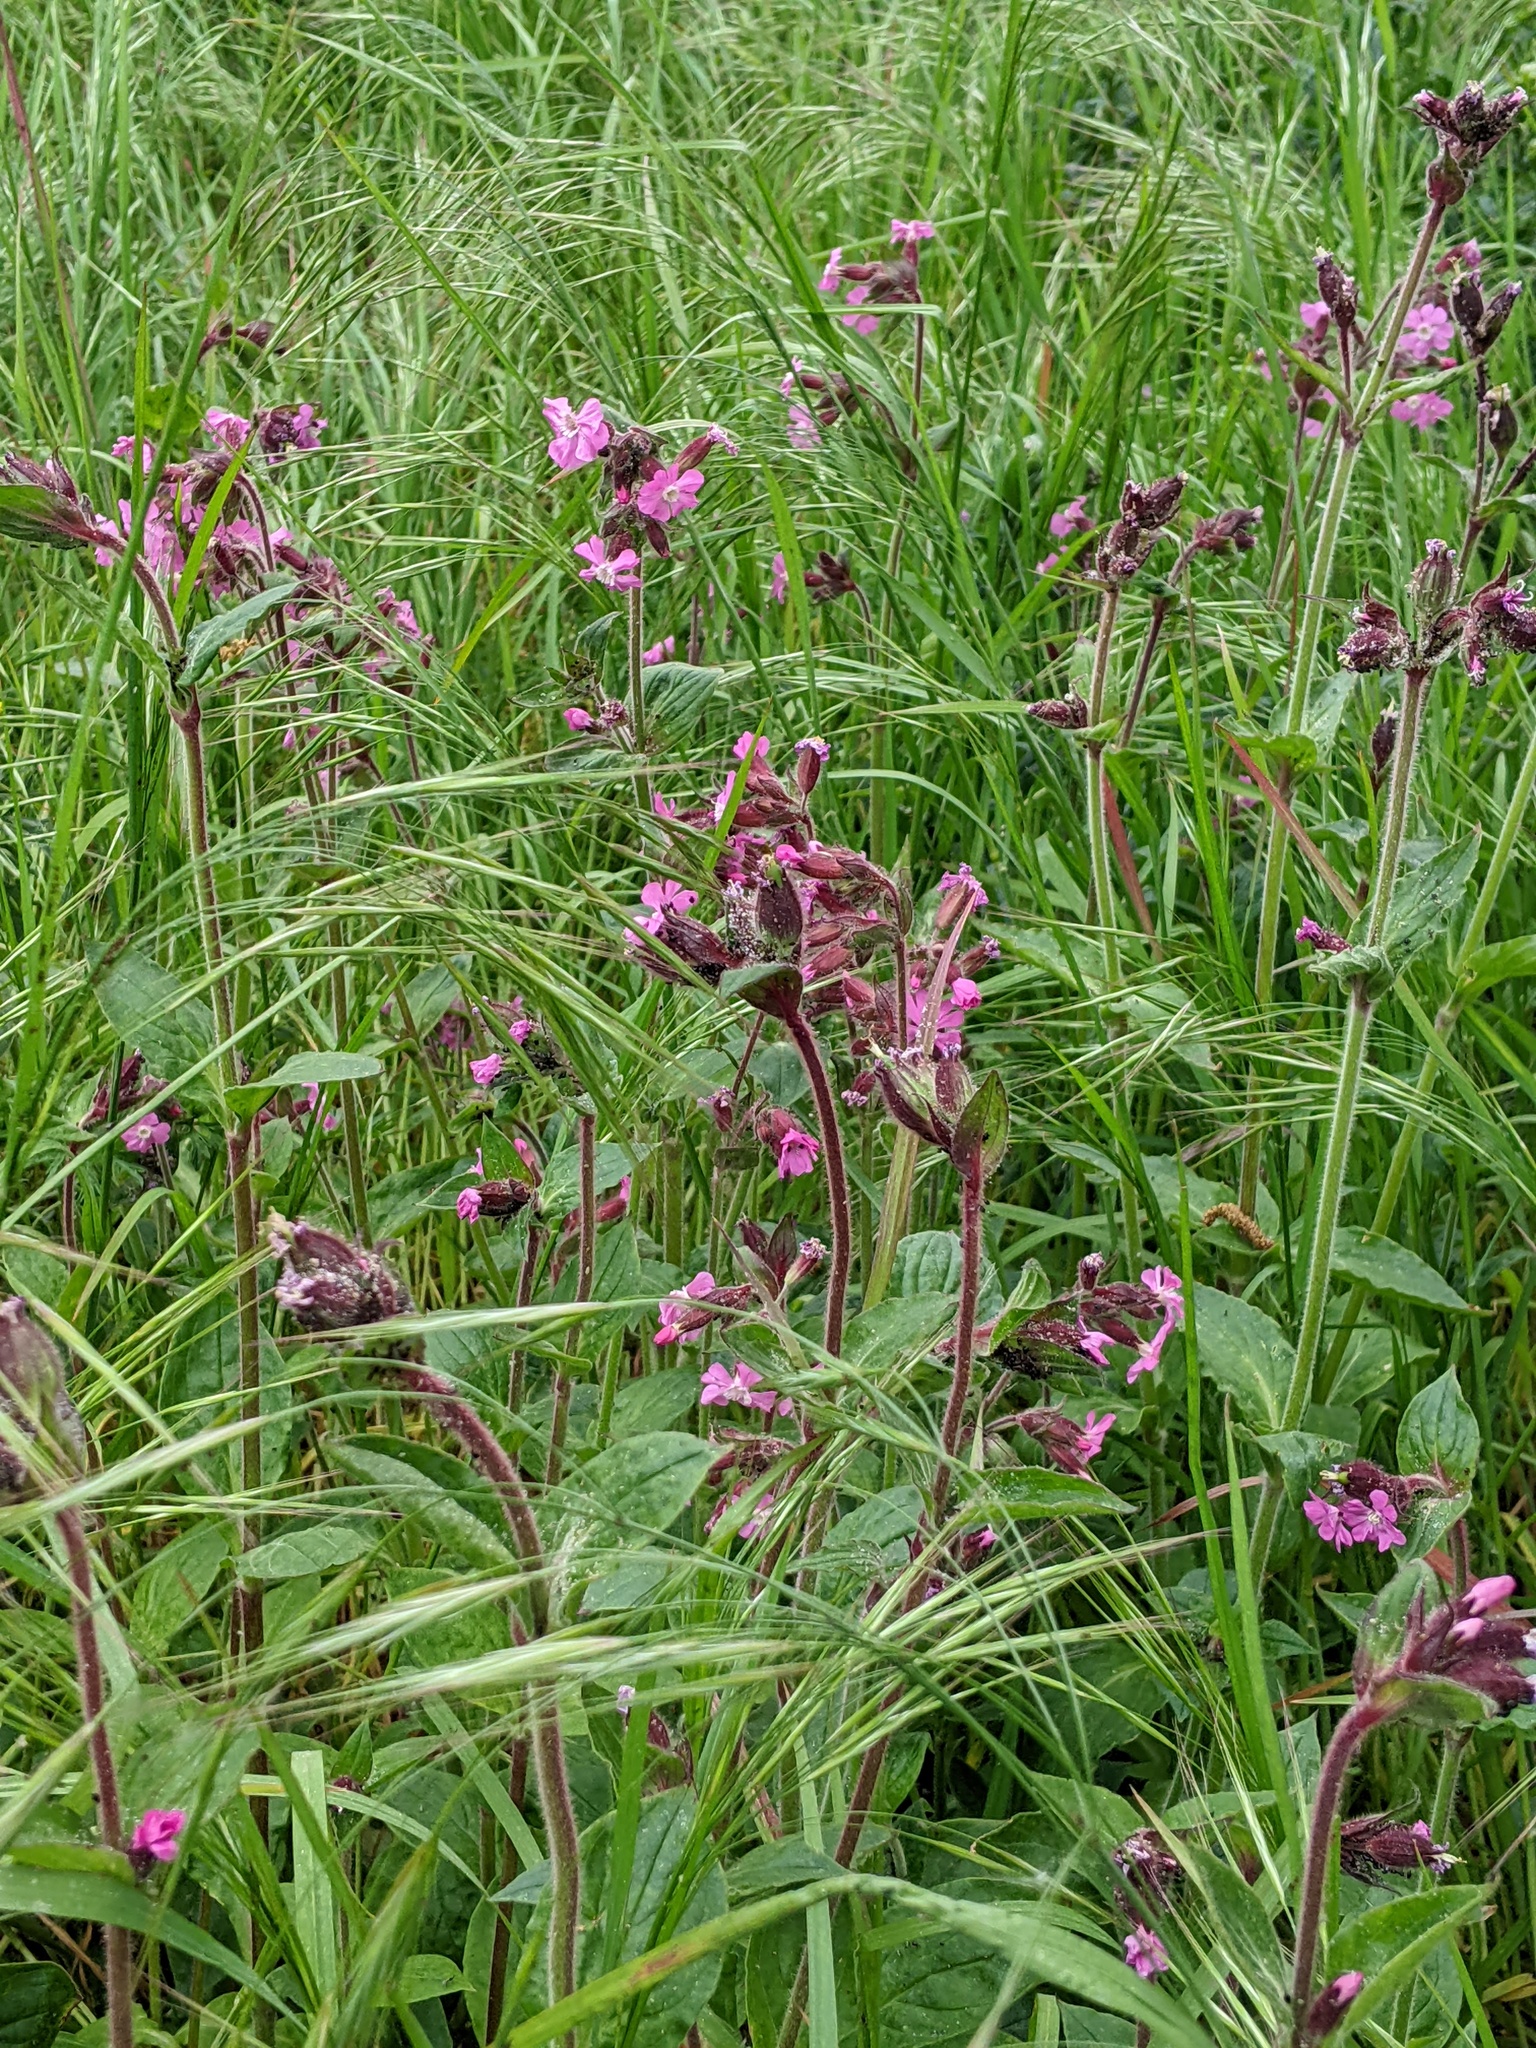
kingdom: Plantae
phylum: Tracheophyta
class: Magnoliopsida
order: Caryophyllales
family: Caryophyllaceae
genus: Silene
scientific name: Silene dioica
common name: Red campion
